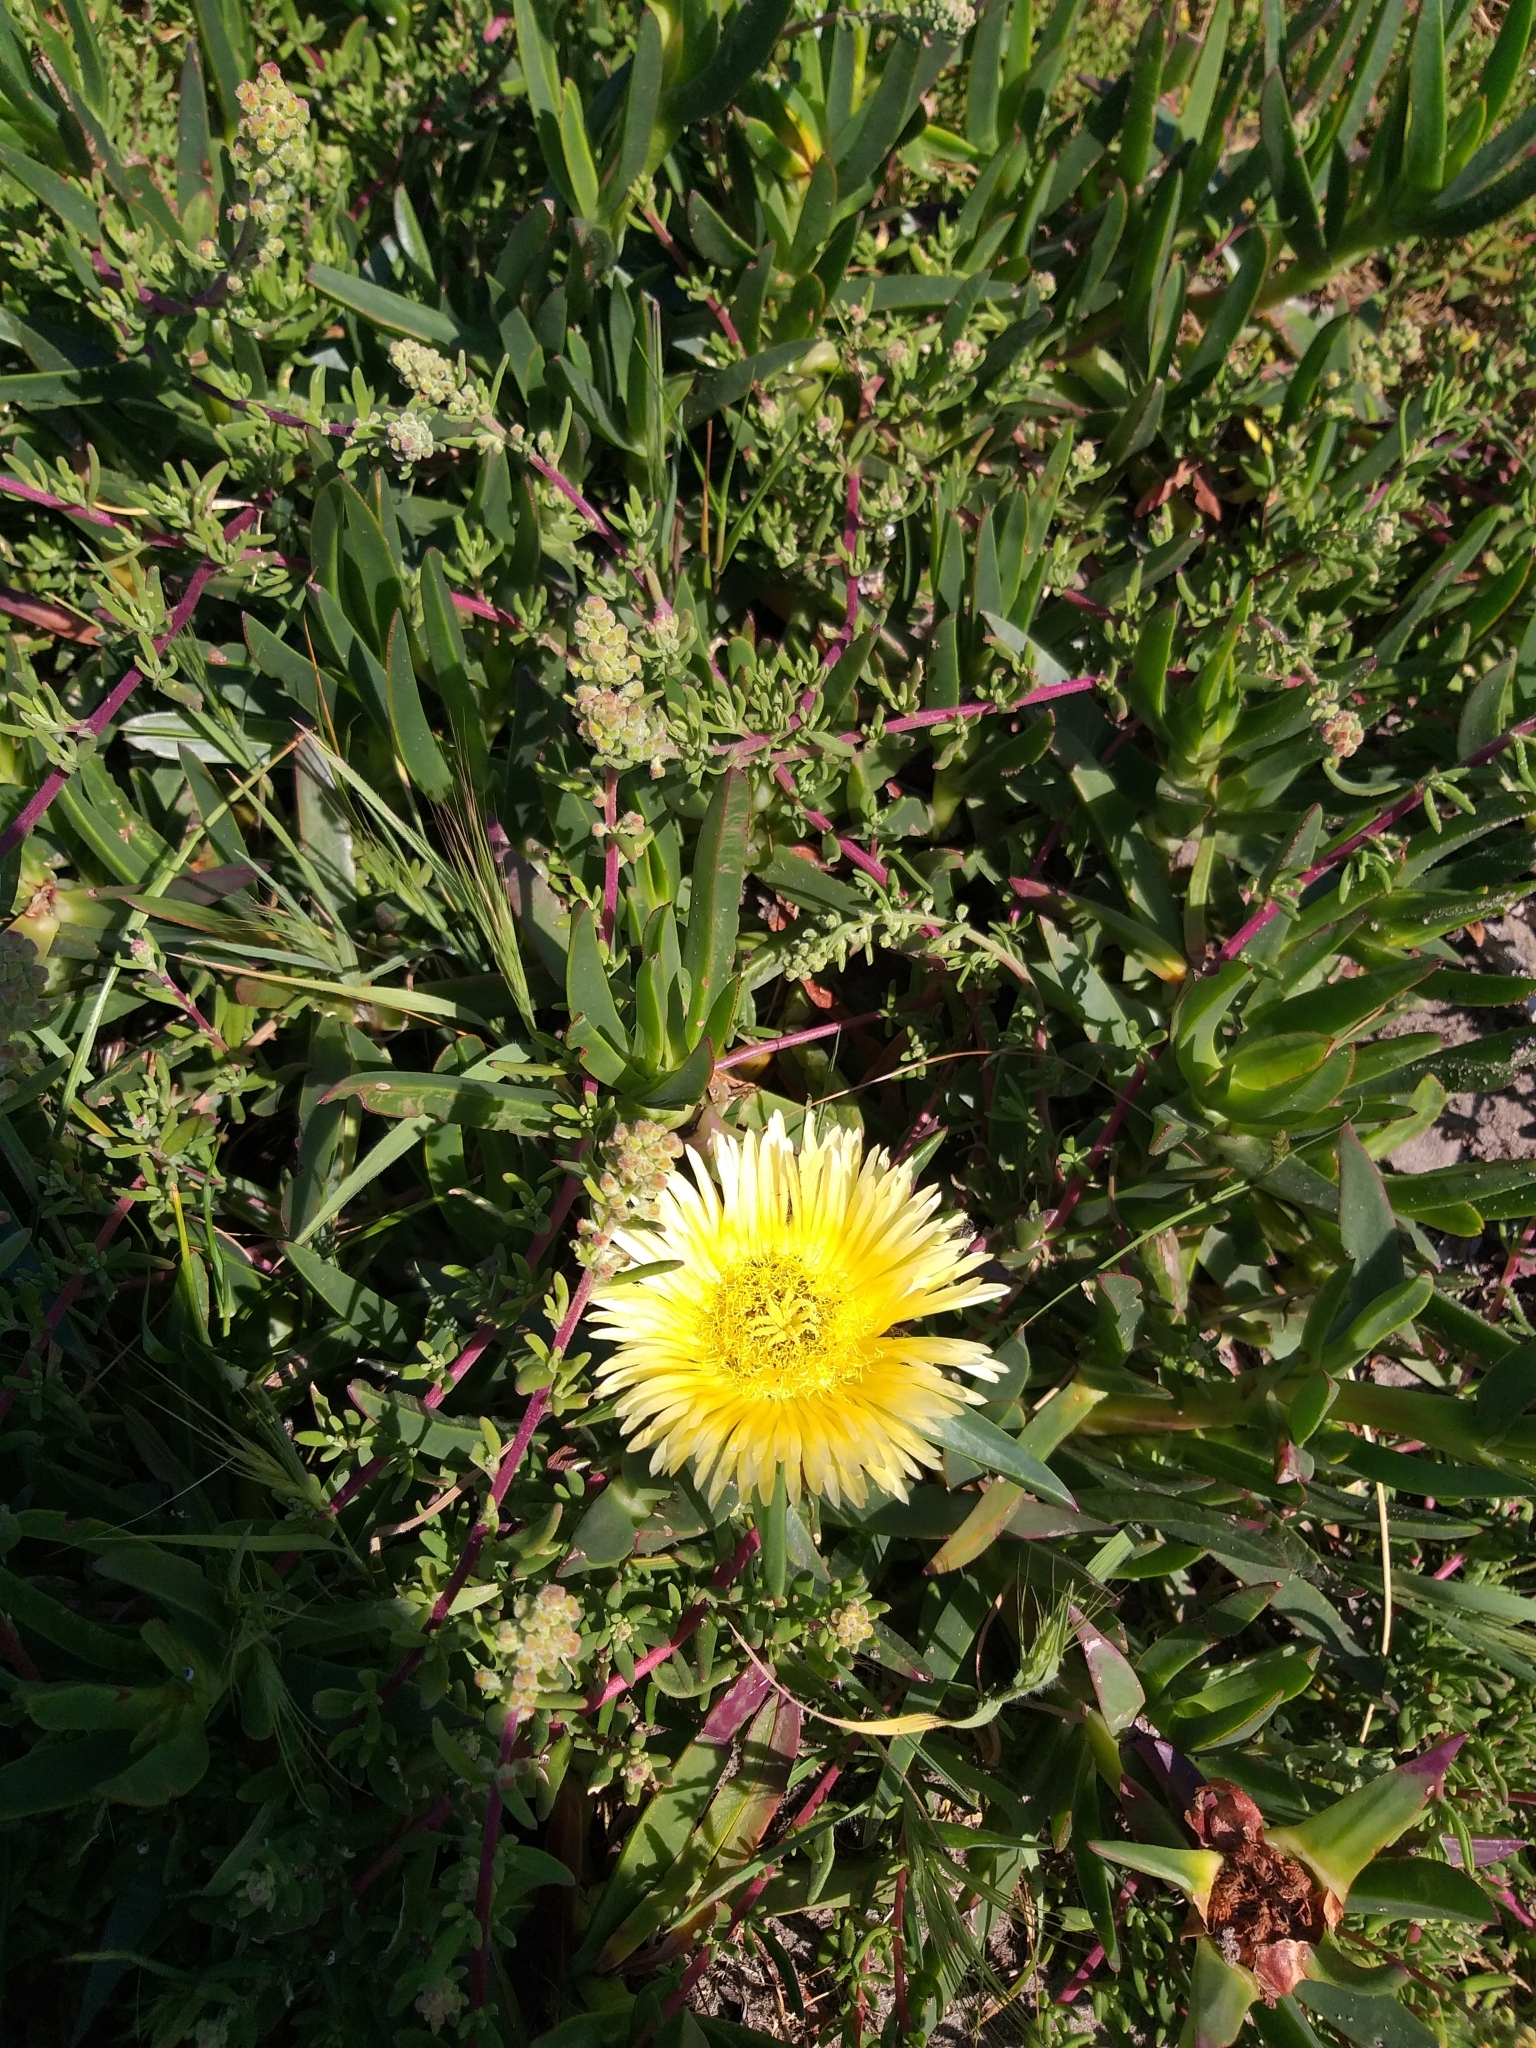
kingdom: Plantae
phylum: Tracheophyta
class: Magnoliopsida
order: Caryophyllales
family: Aizoaceae
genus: Carpobrotus
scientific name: Carpobrotus edulis
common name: Hottentot-fig
